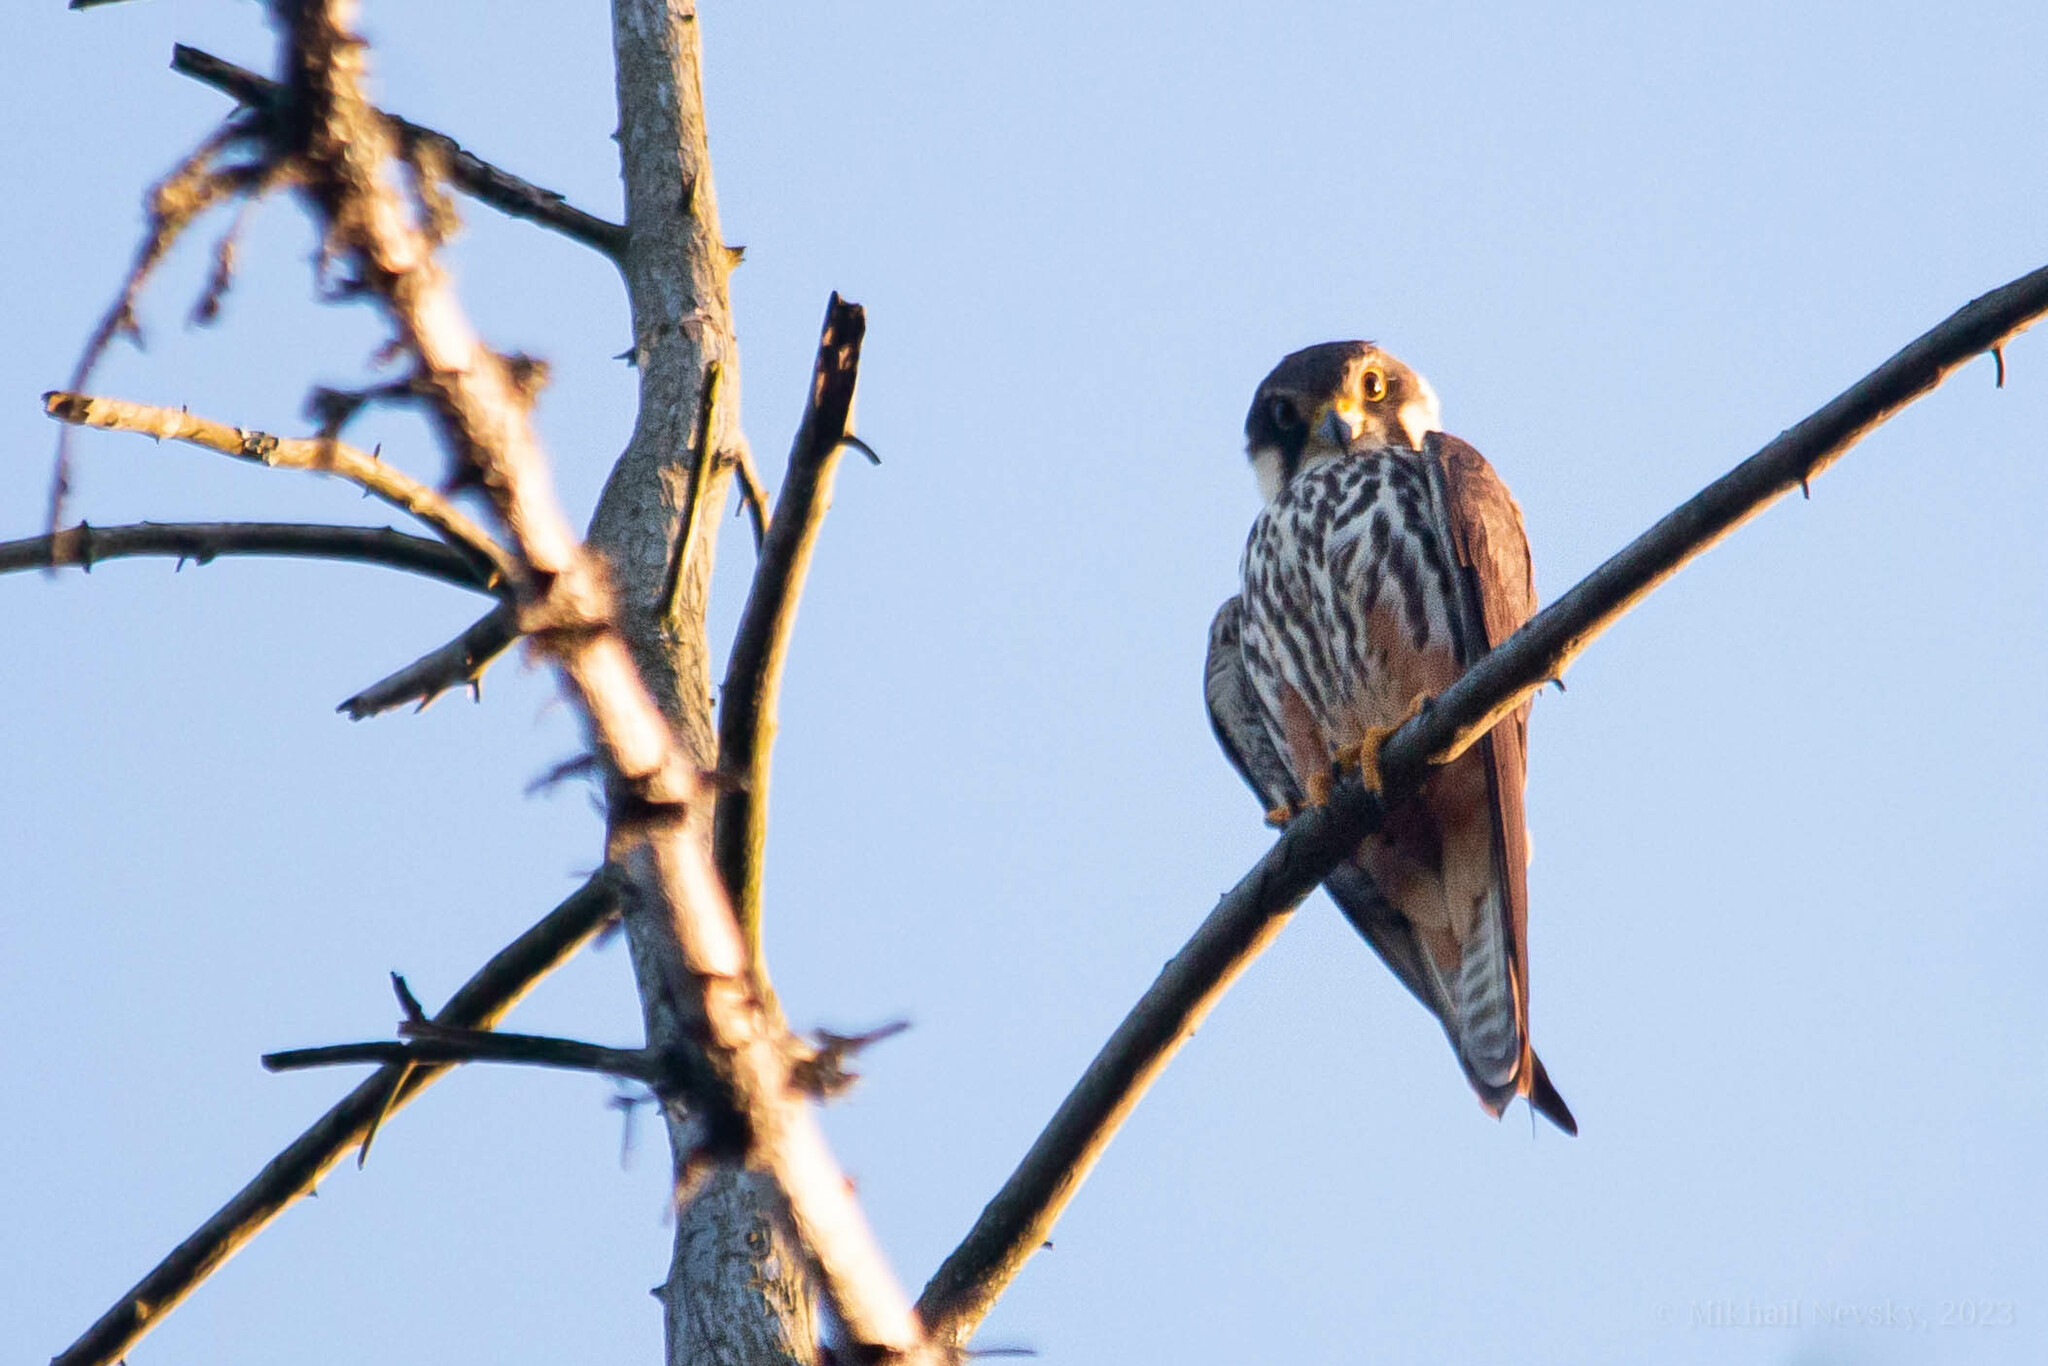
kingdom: Animalia
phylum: Chordata
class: Aves
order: Falconiformes
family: Falconidae
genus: Falco
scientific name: Falco subbuteo
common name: Eurasian hobby
